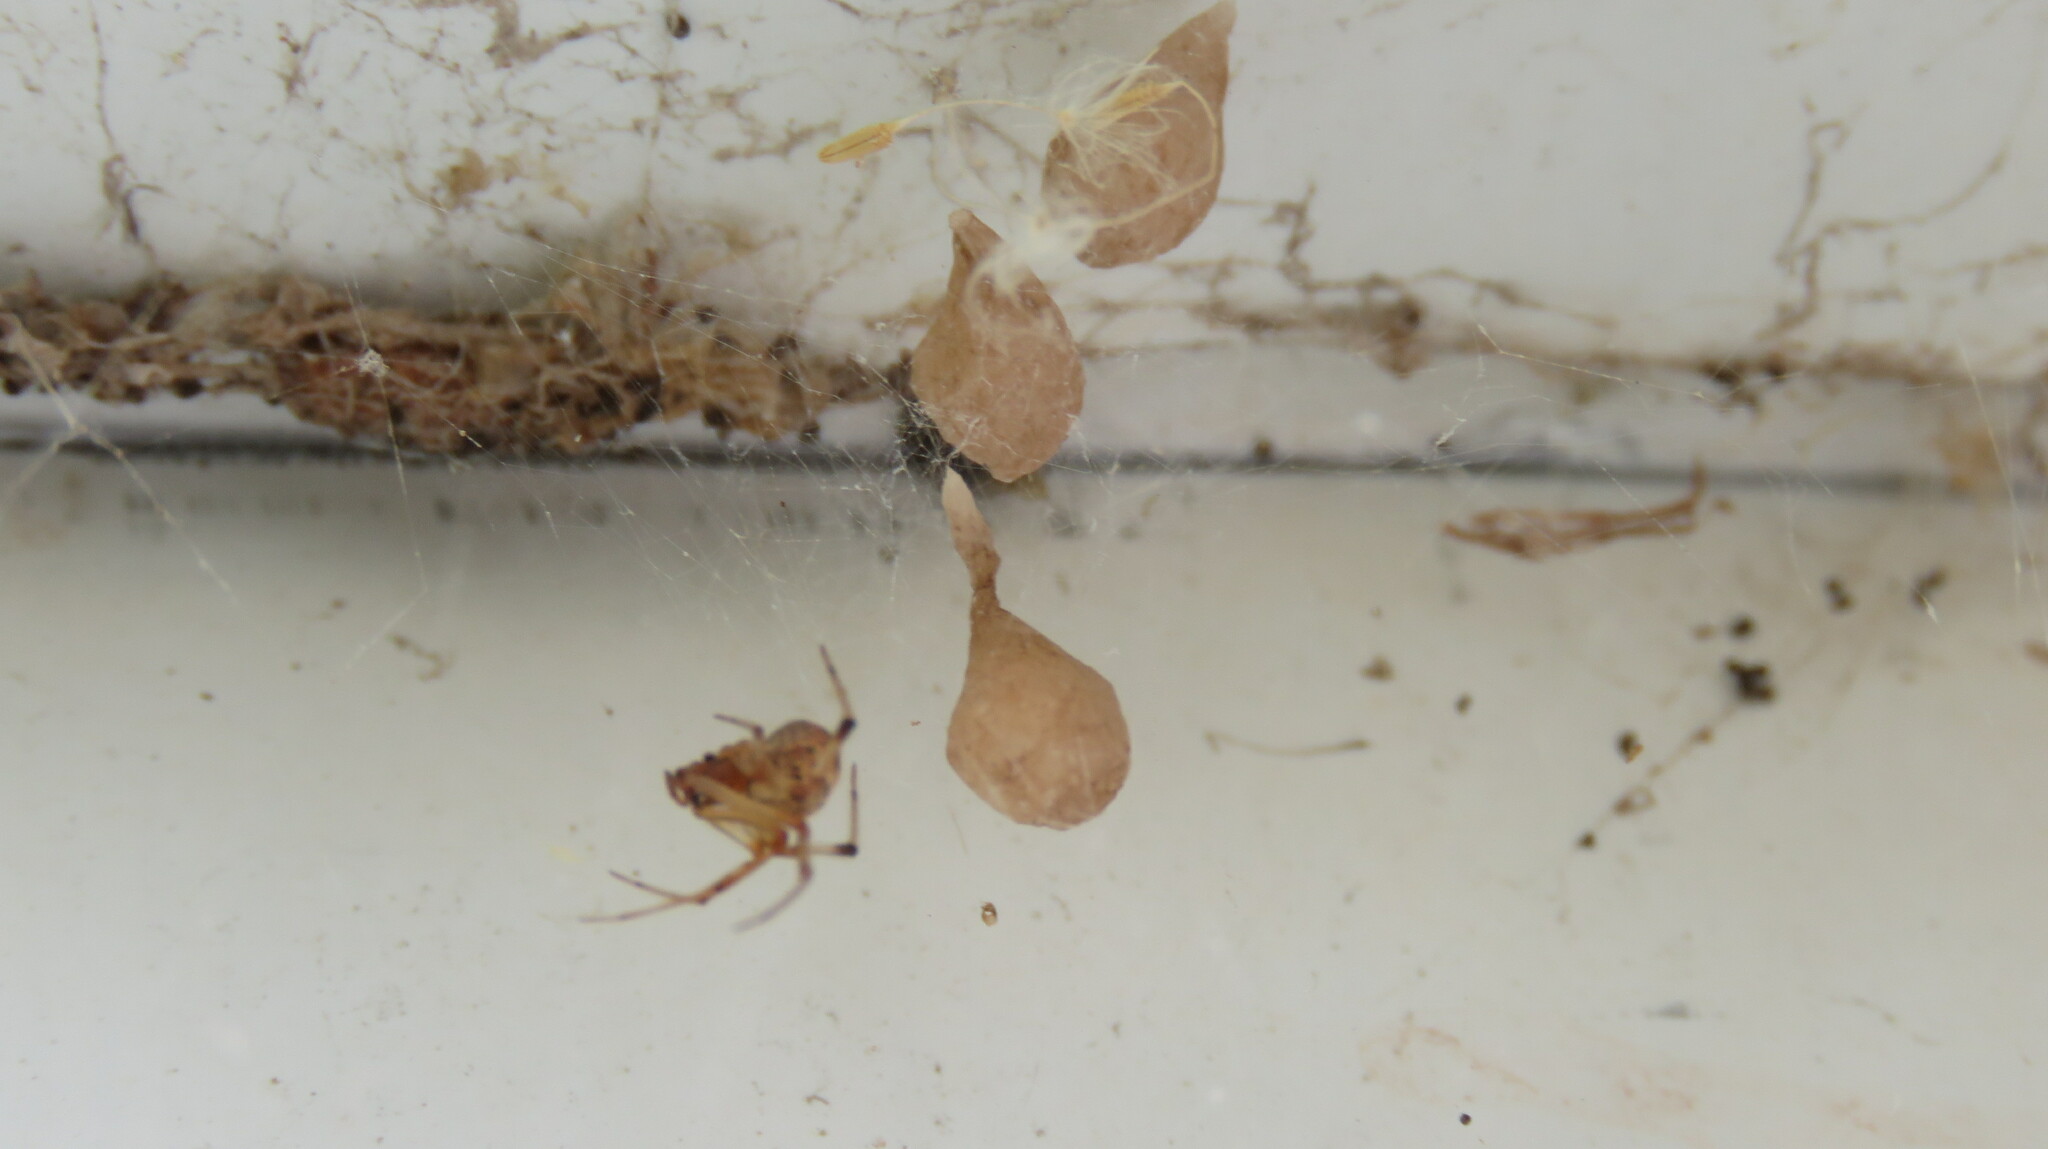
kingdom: Animalia
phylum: Arthropoda
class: Arachnida
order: Araneae
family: Theridiidae
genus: Parasteatoda
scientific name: Parasteatoda tepidariorum
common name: Common house spider
